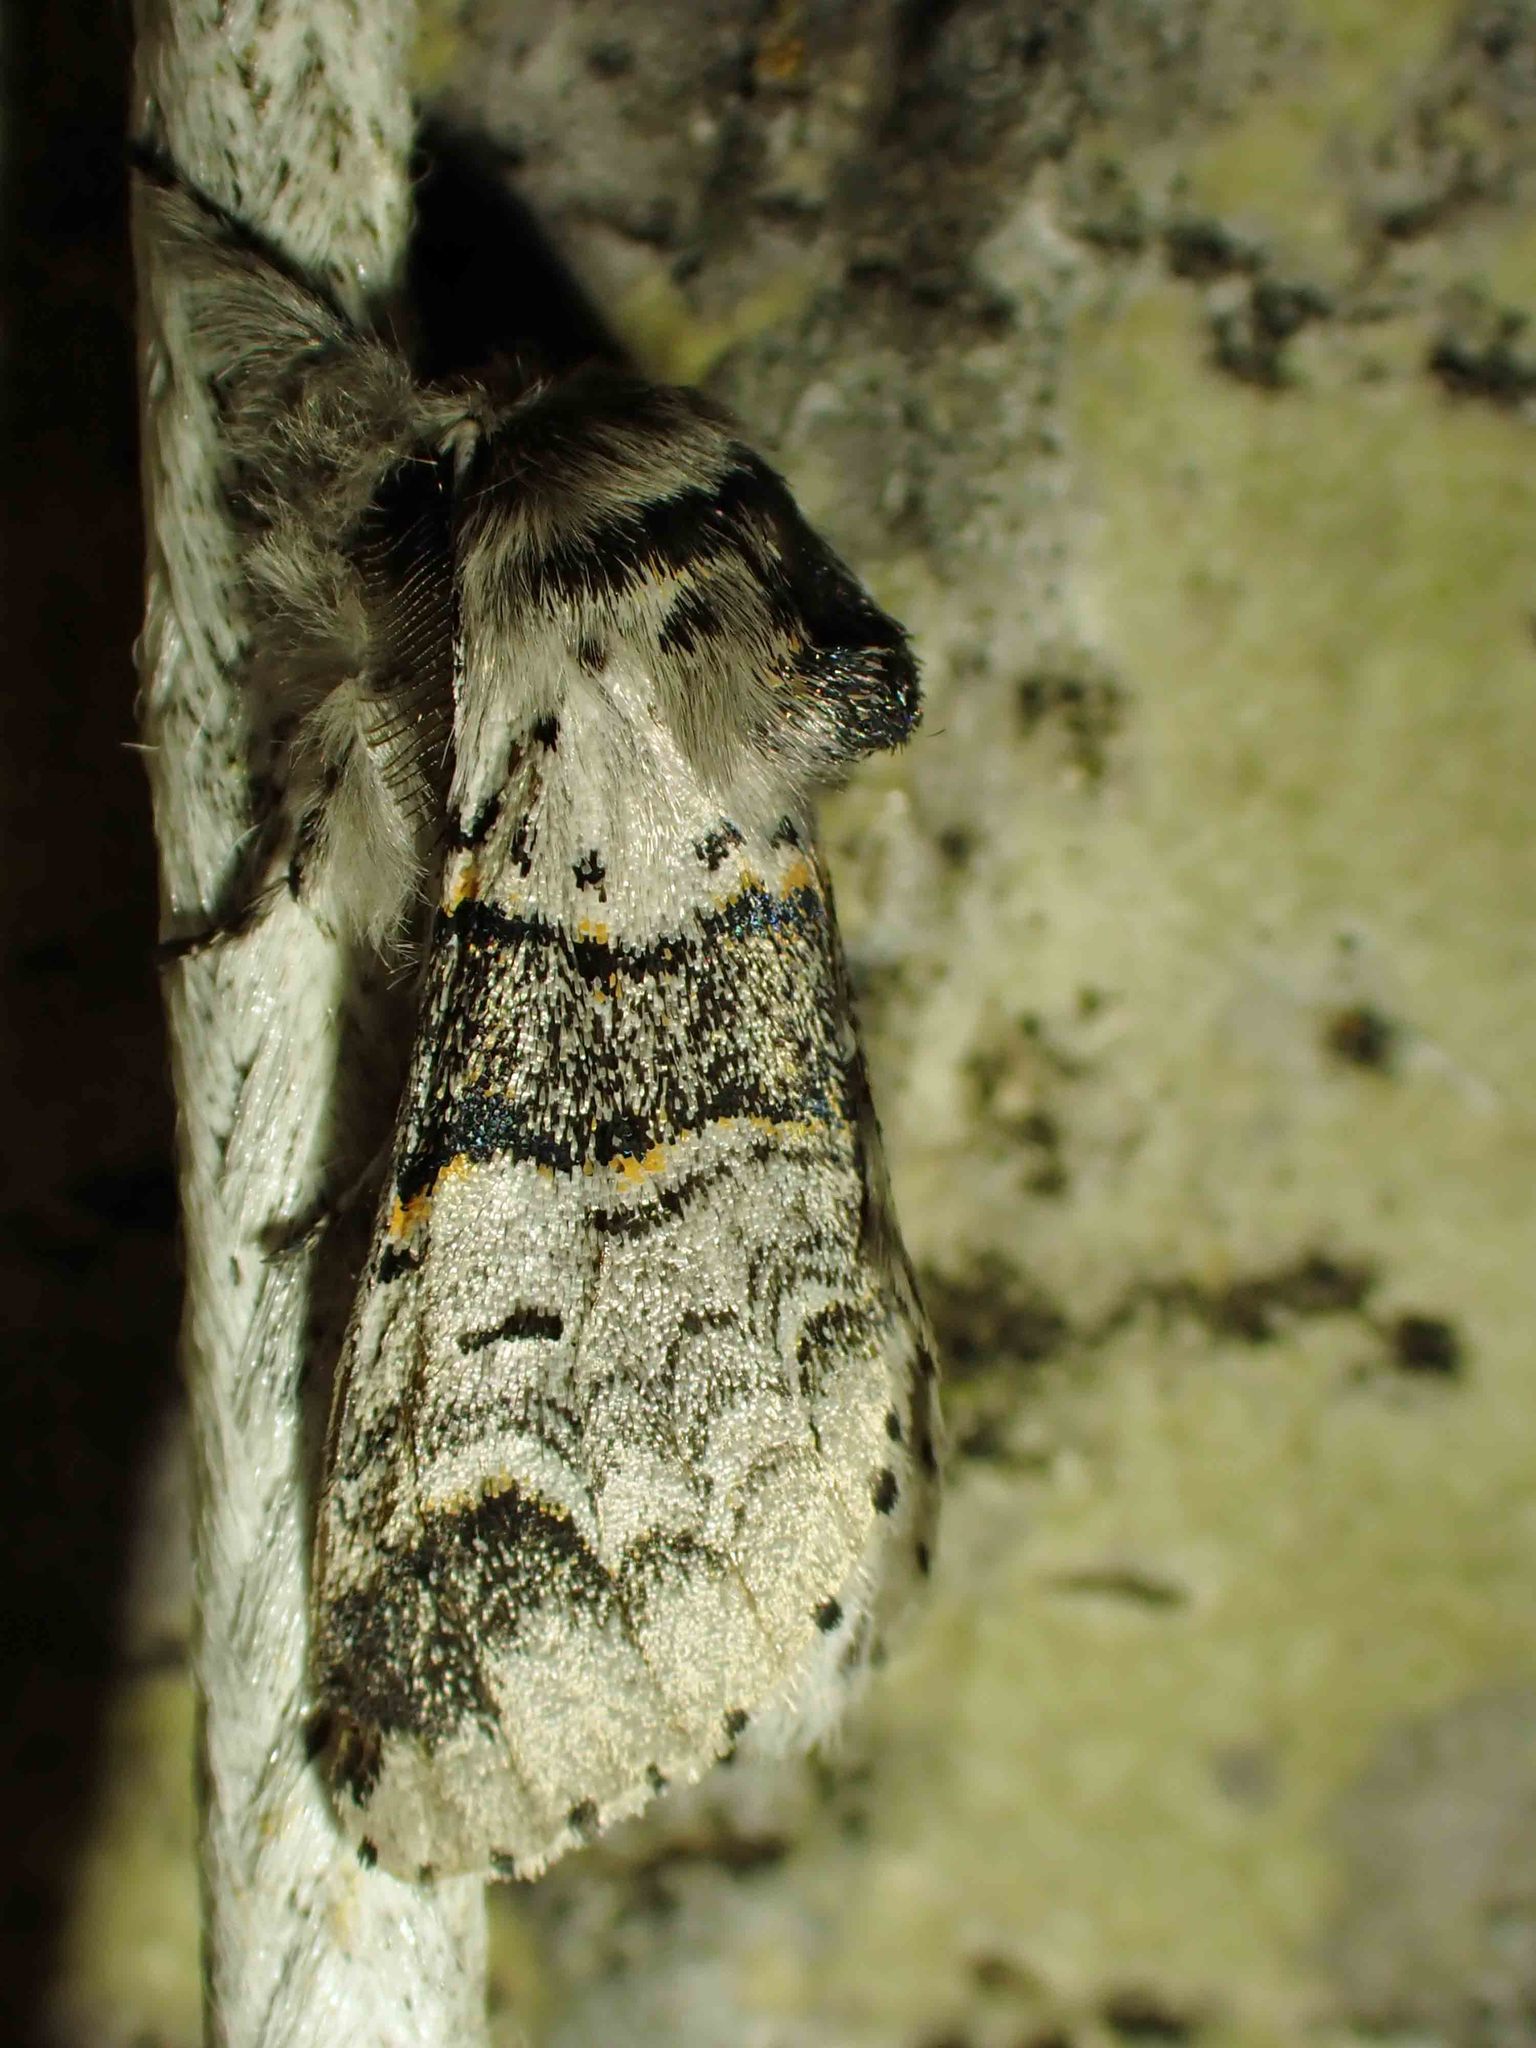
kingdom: Animalia
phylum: Arthropoda
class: Insecta
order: Lepidoptera
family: Notodontidae
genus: Furcula
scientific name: Furcula occidentalis
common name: Western furcula moth
